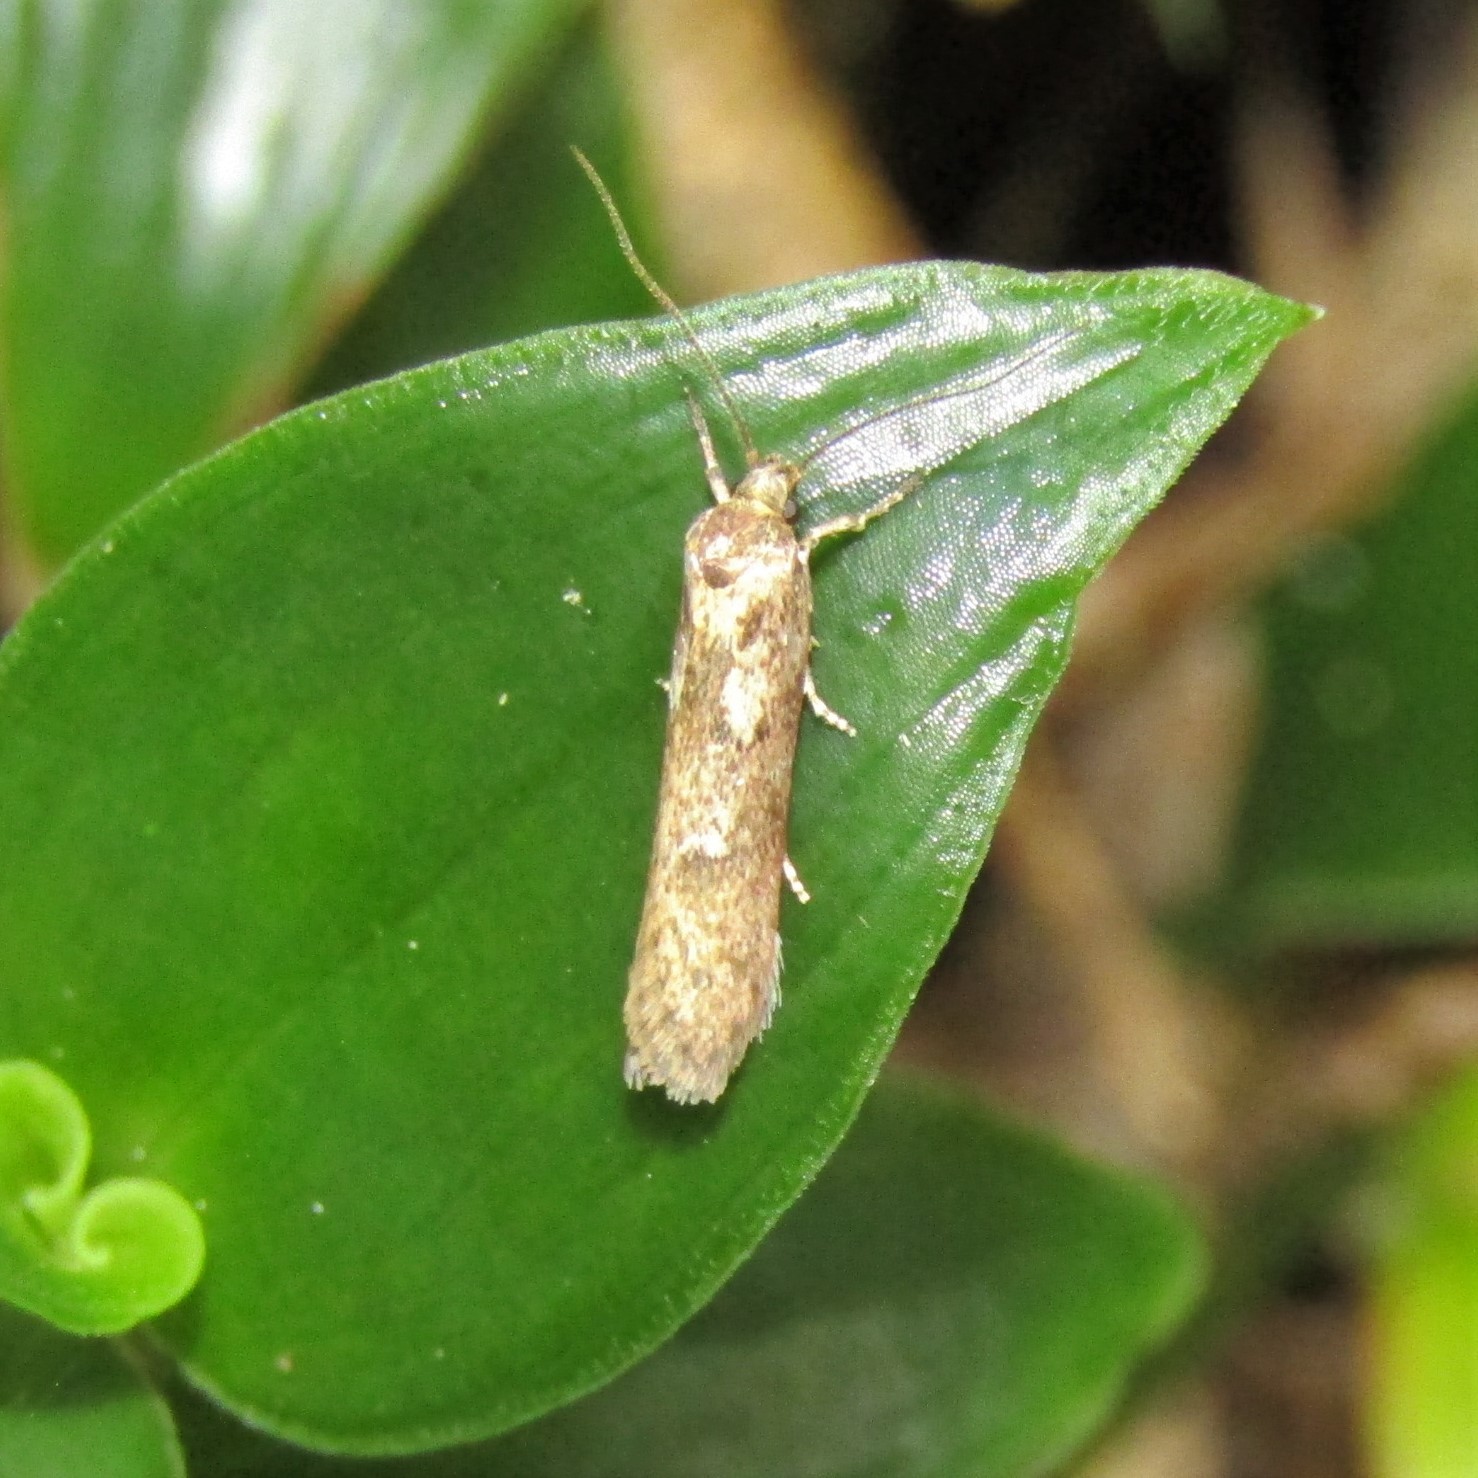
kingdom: Animalia
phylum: Arthropoda
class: Insecta
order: Lepidoptera
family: Oecophoridae
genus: Chersadaula
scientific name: Chersadaula ochrogastra
